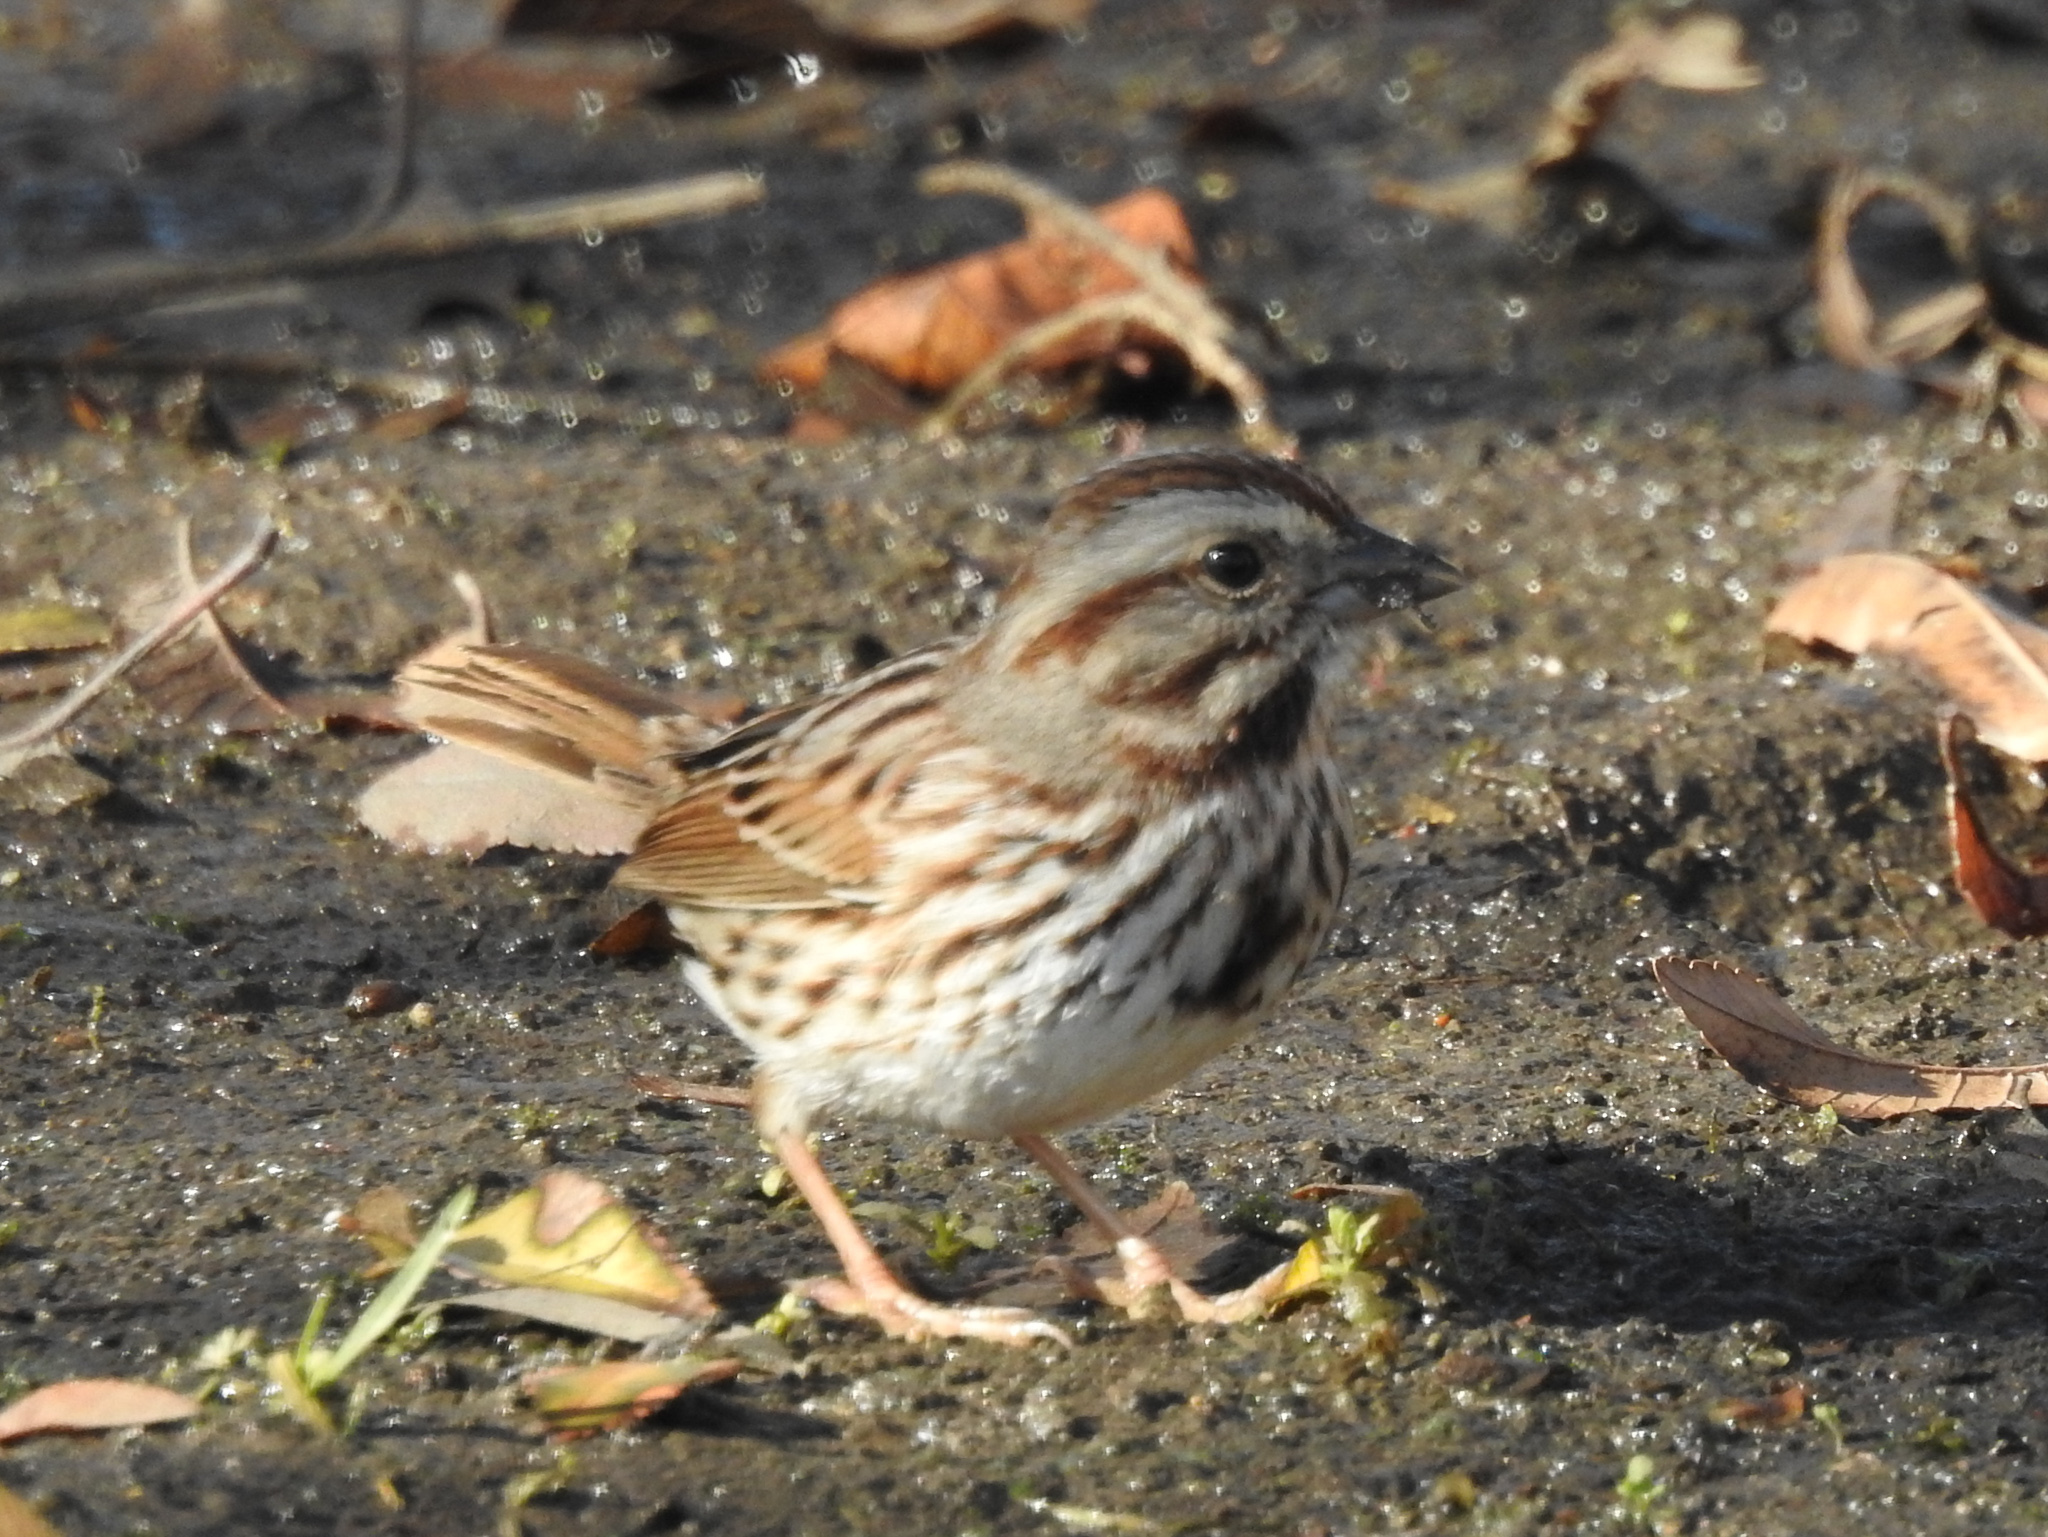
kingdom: Animalia
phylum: Chordata
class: Aves
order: Passeriformes
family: Passerellidae
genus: Melospiza
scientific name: Melospiza melodia
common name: Song sparrow
